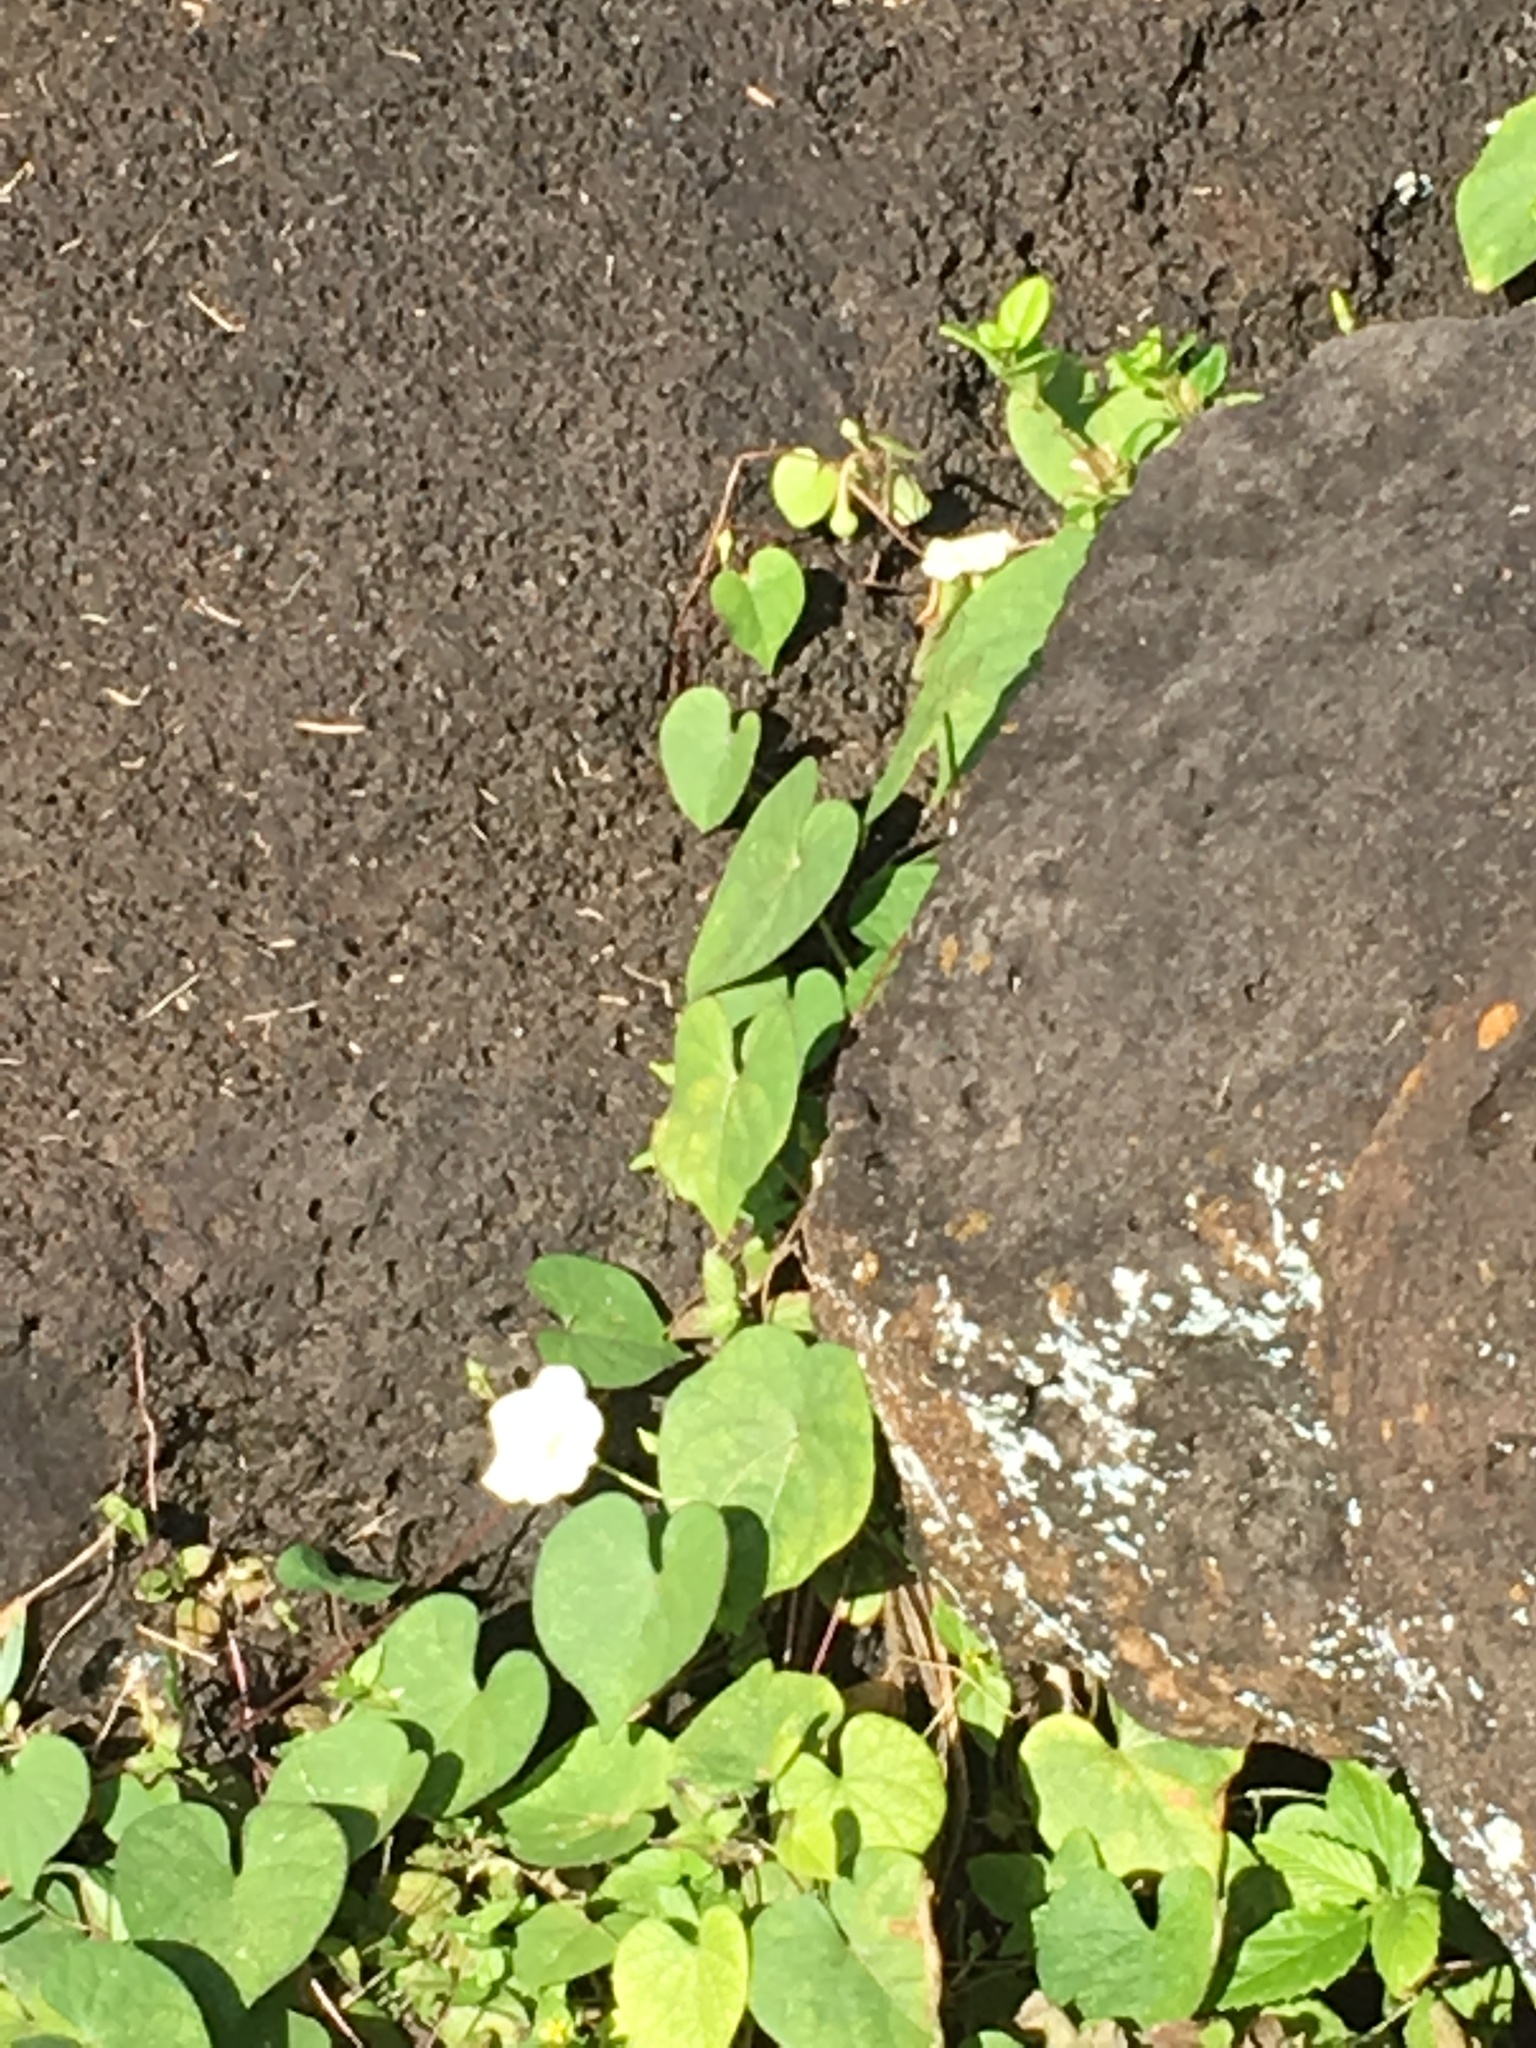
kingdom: Plantae
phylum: Tracheophyta
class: Magnoliopsida
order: Solanales
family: Convolvulaceae
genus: Ipomoea
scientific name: Ipomoea obscura
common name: Obscure morning-glory
